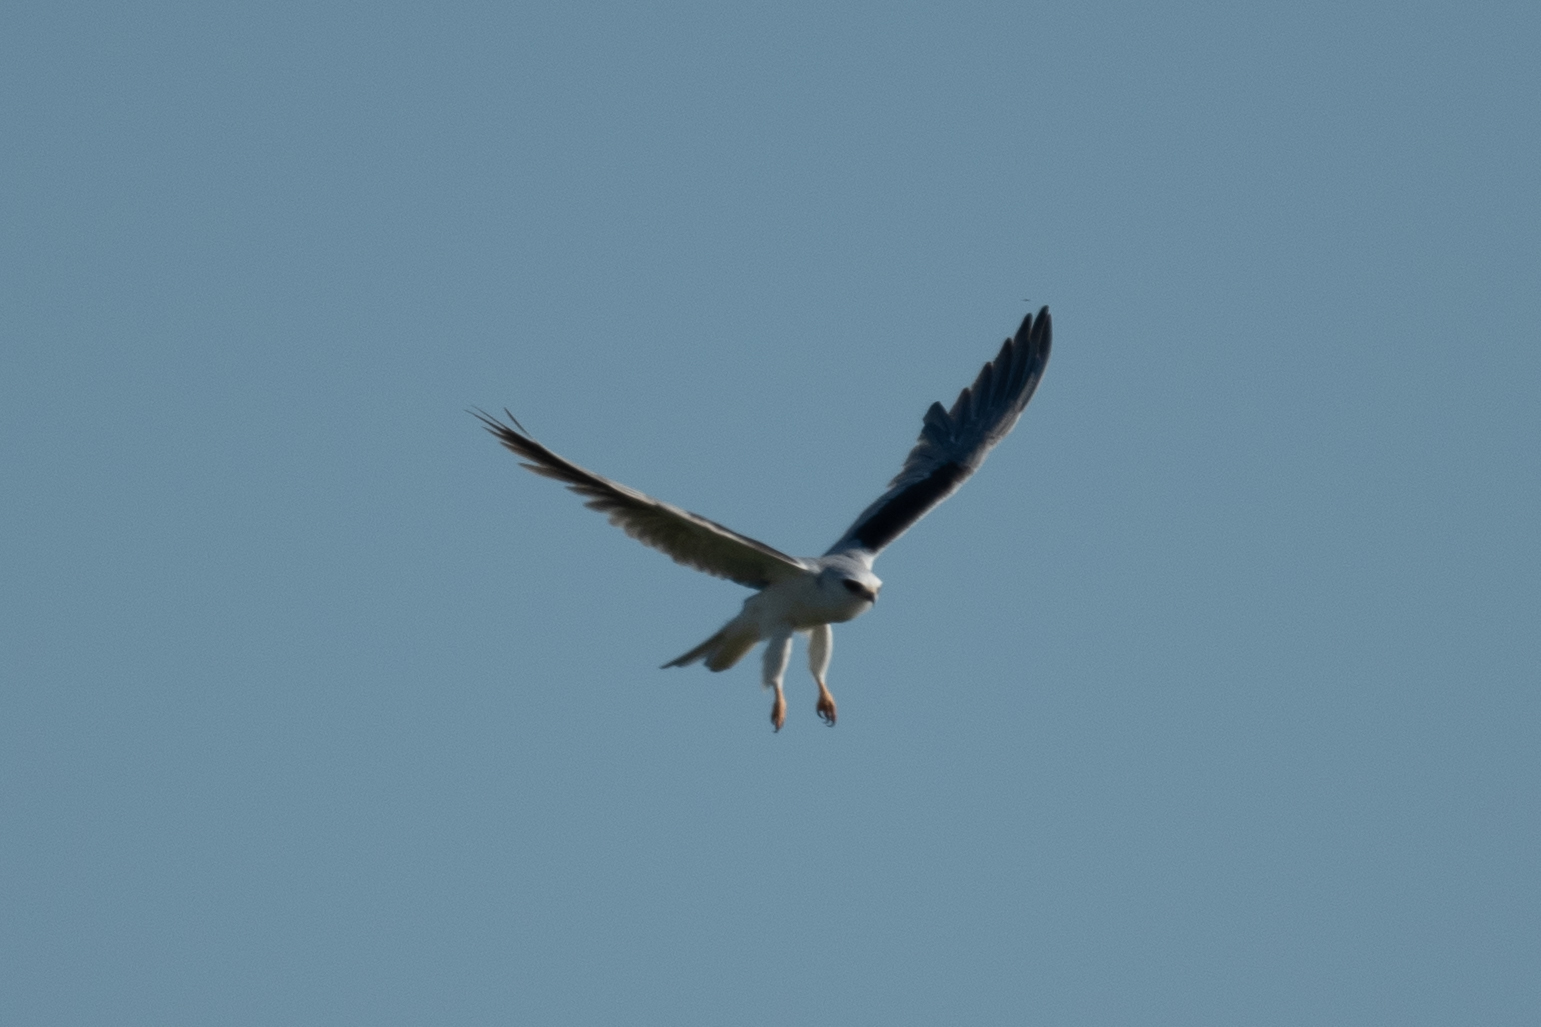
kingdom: Animalia
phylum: Chordata
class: Aves
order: Accipitriformes
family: Accipitridae
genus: Elanus
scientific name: Elanus leucurus
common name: White-tailed kite
